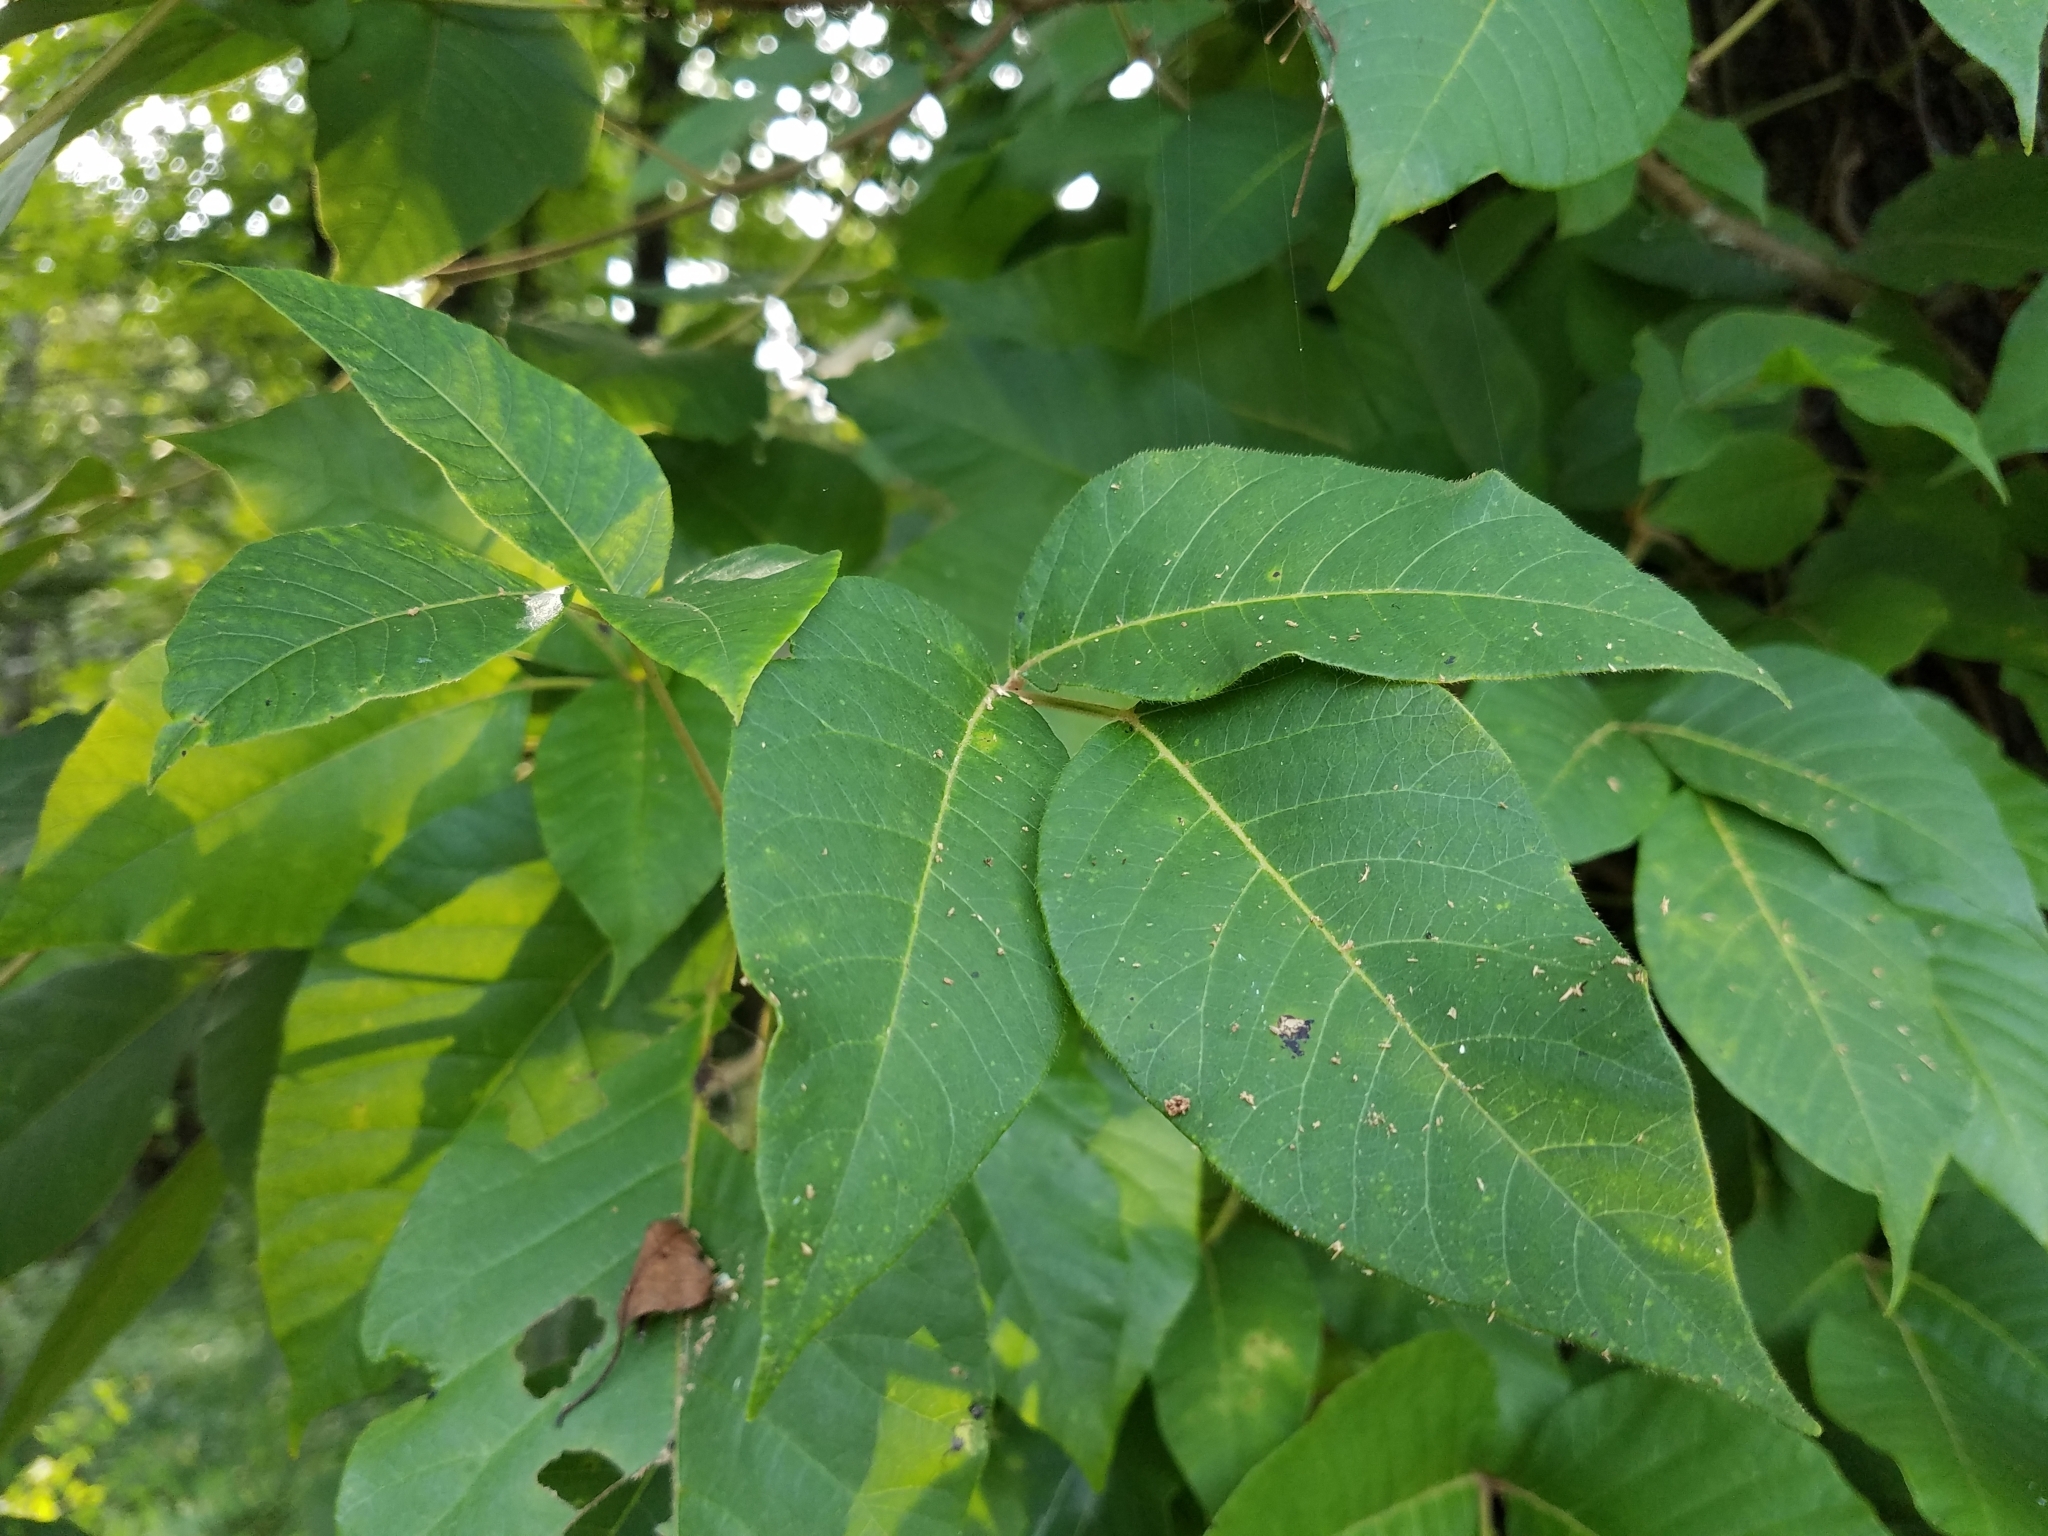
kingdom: Plantae
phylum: Tracheophyta
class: Magnoliopsida
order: Sapindales
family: Anacardiaceae
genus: Toxicodendron
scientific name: Toxicodendron radicans
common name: Poison ivy
